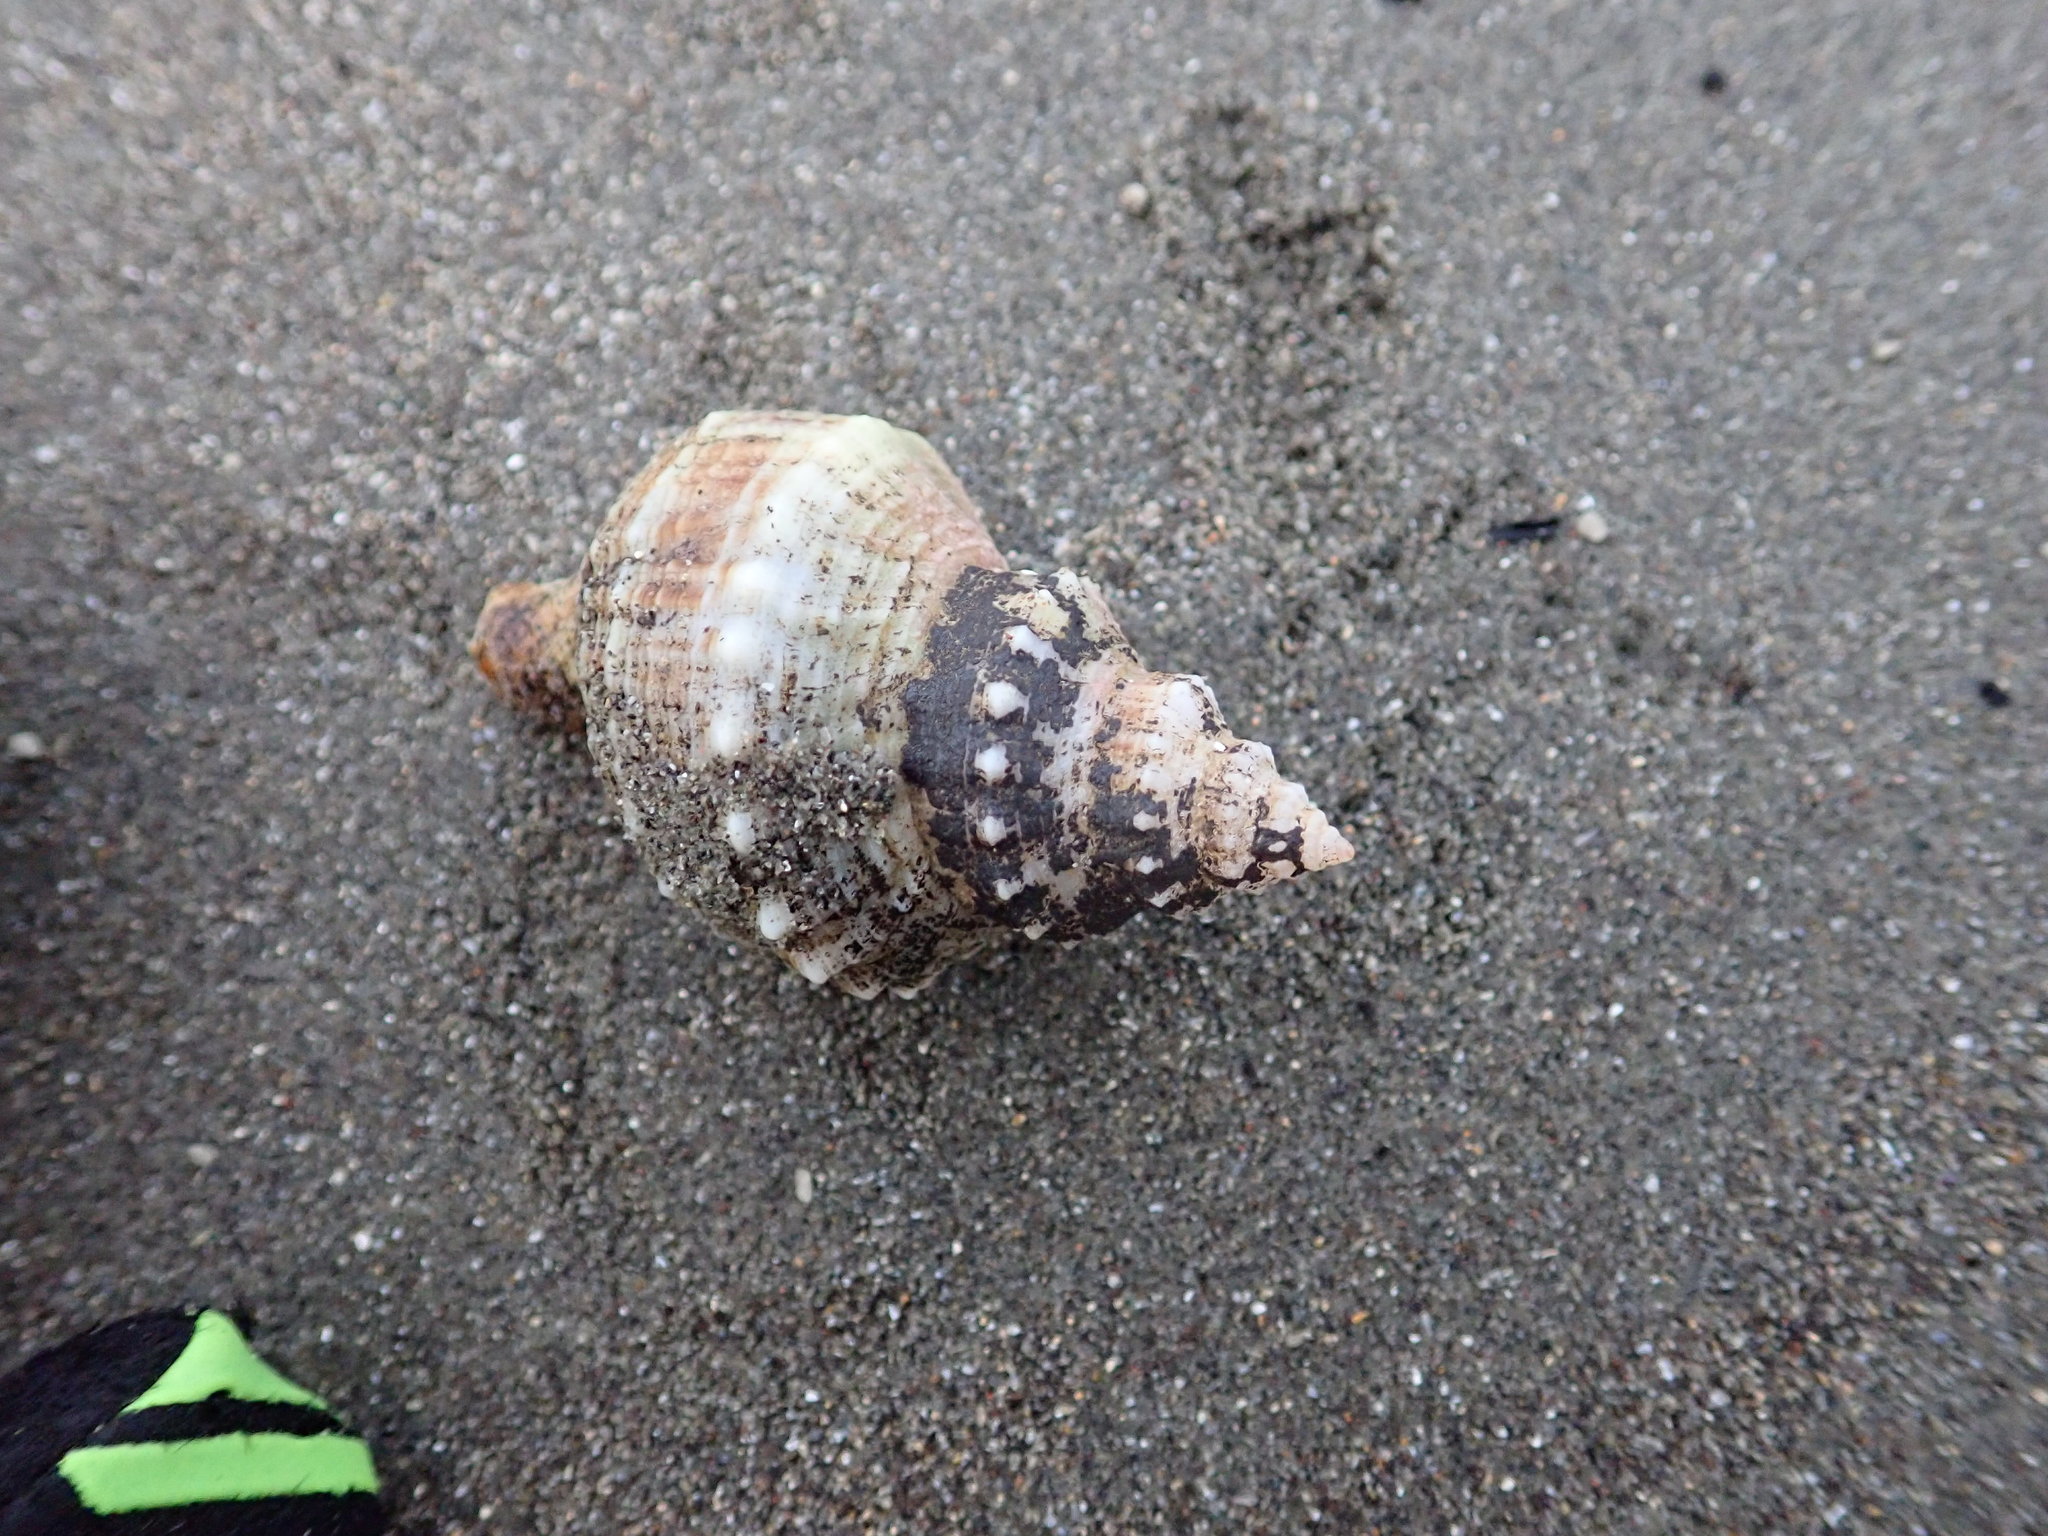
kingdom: Animalia
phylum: Mollusca
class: Gastropoda
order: Neogastropoda
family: Prosiphonidae
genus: Austrofusus
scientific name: Austrofusus glans
